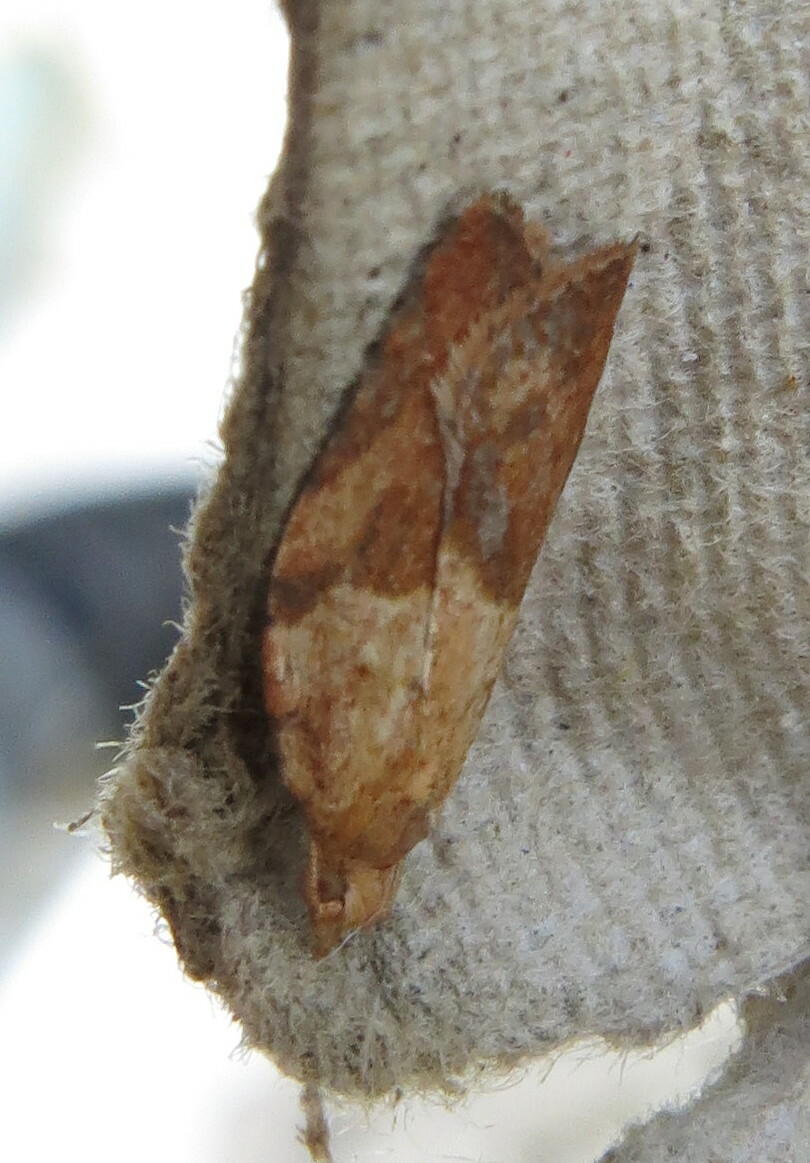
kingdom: Animalia
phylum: Arthropoda
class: Insecta
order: Lepidoptera
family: Tortricidae
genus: Epiphyas
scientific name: Epiphyas postvittana
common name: Light brown apple moth
